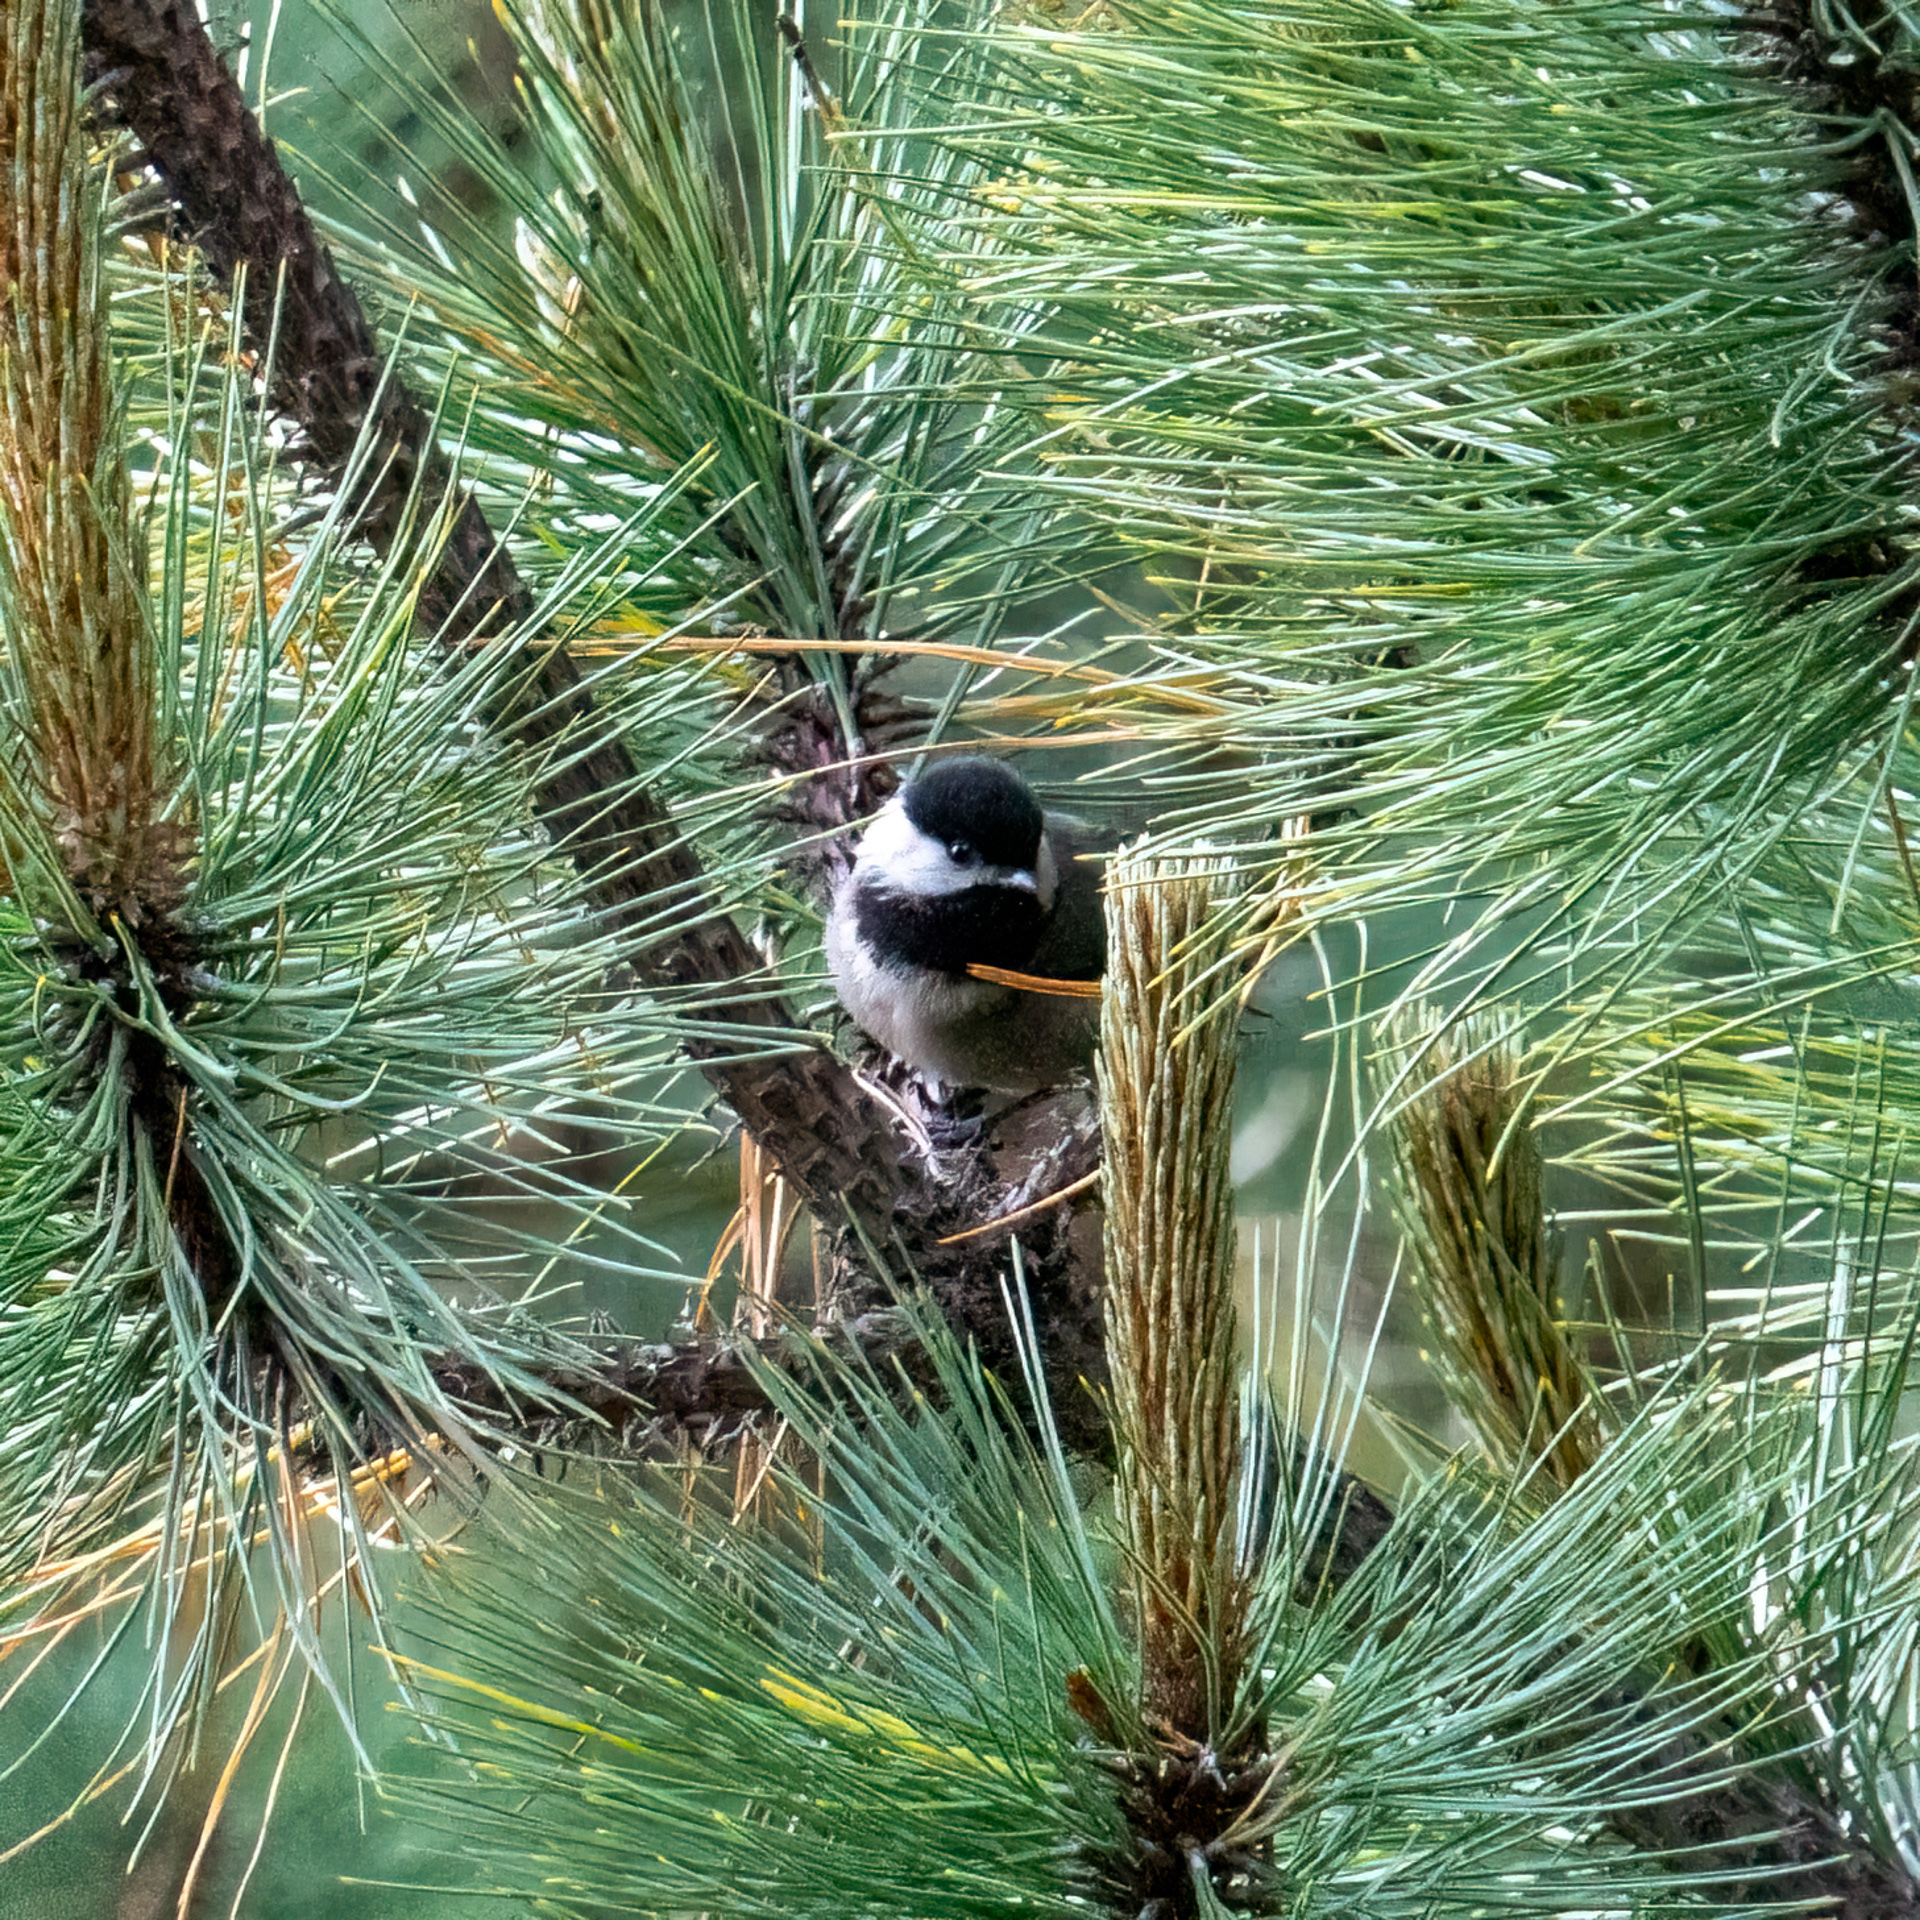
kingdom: Animalia
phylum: Chordata
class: Aves
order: Passeriformes
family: Paridae
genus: Poecile
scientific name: Poecile sclateri
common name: Mexican chickadee
